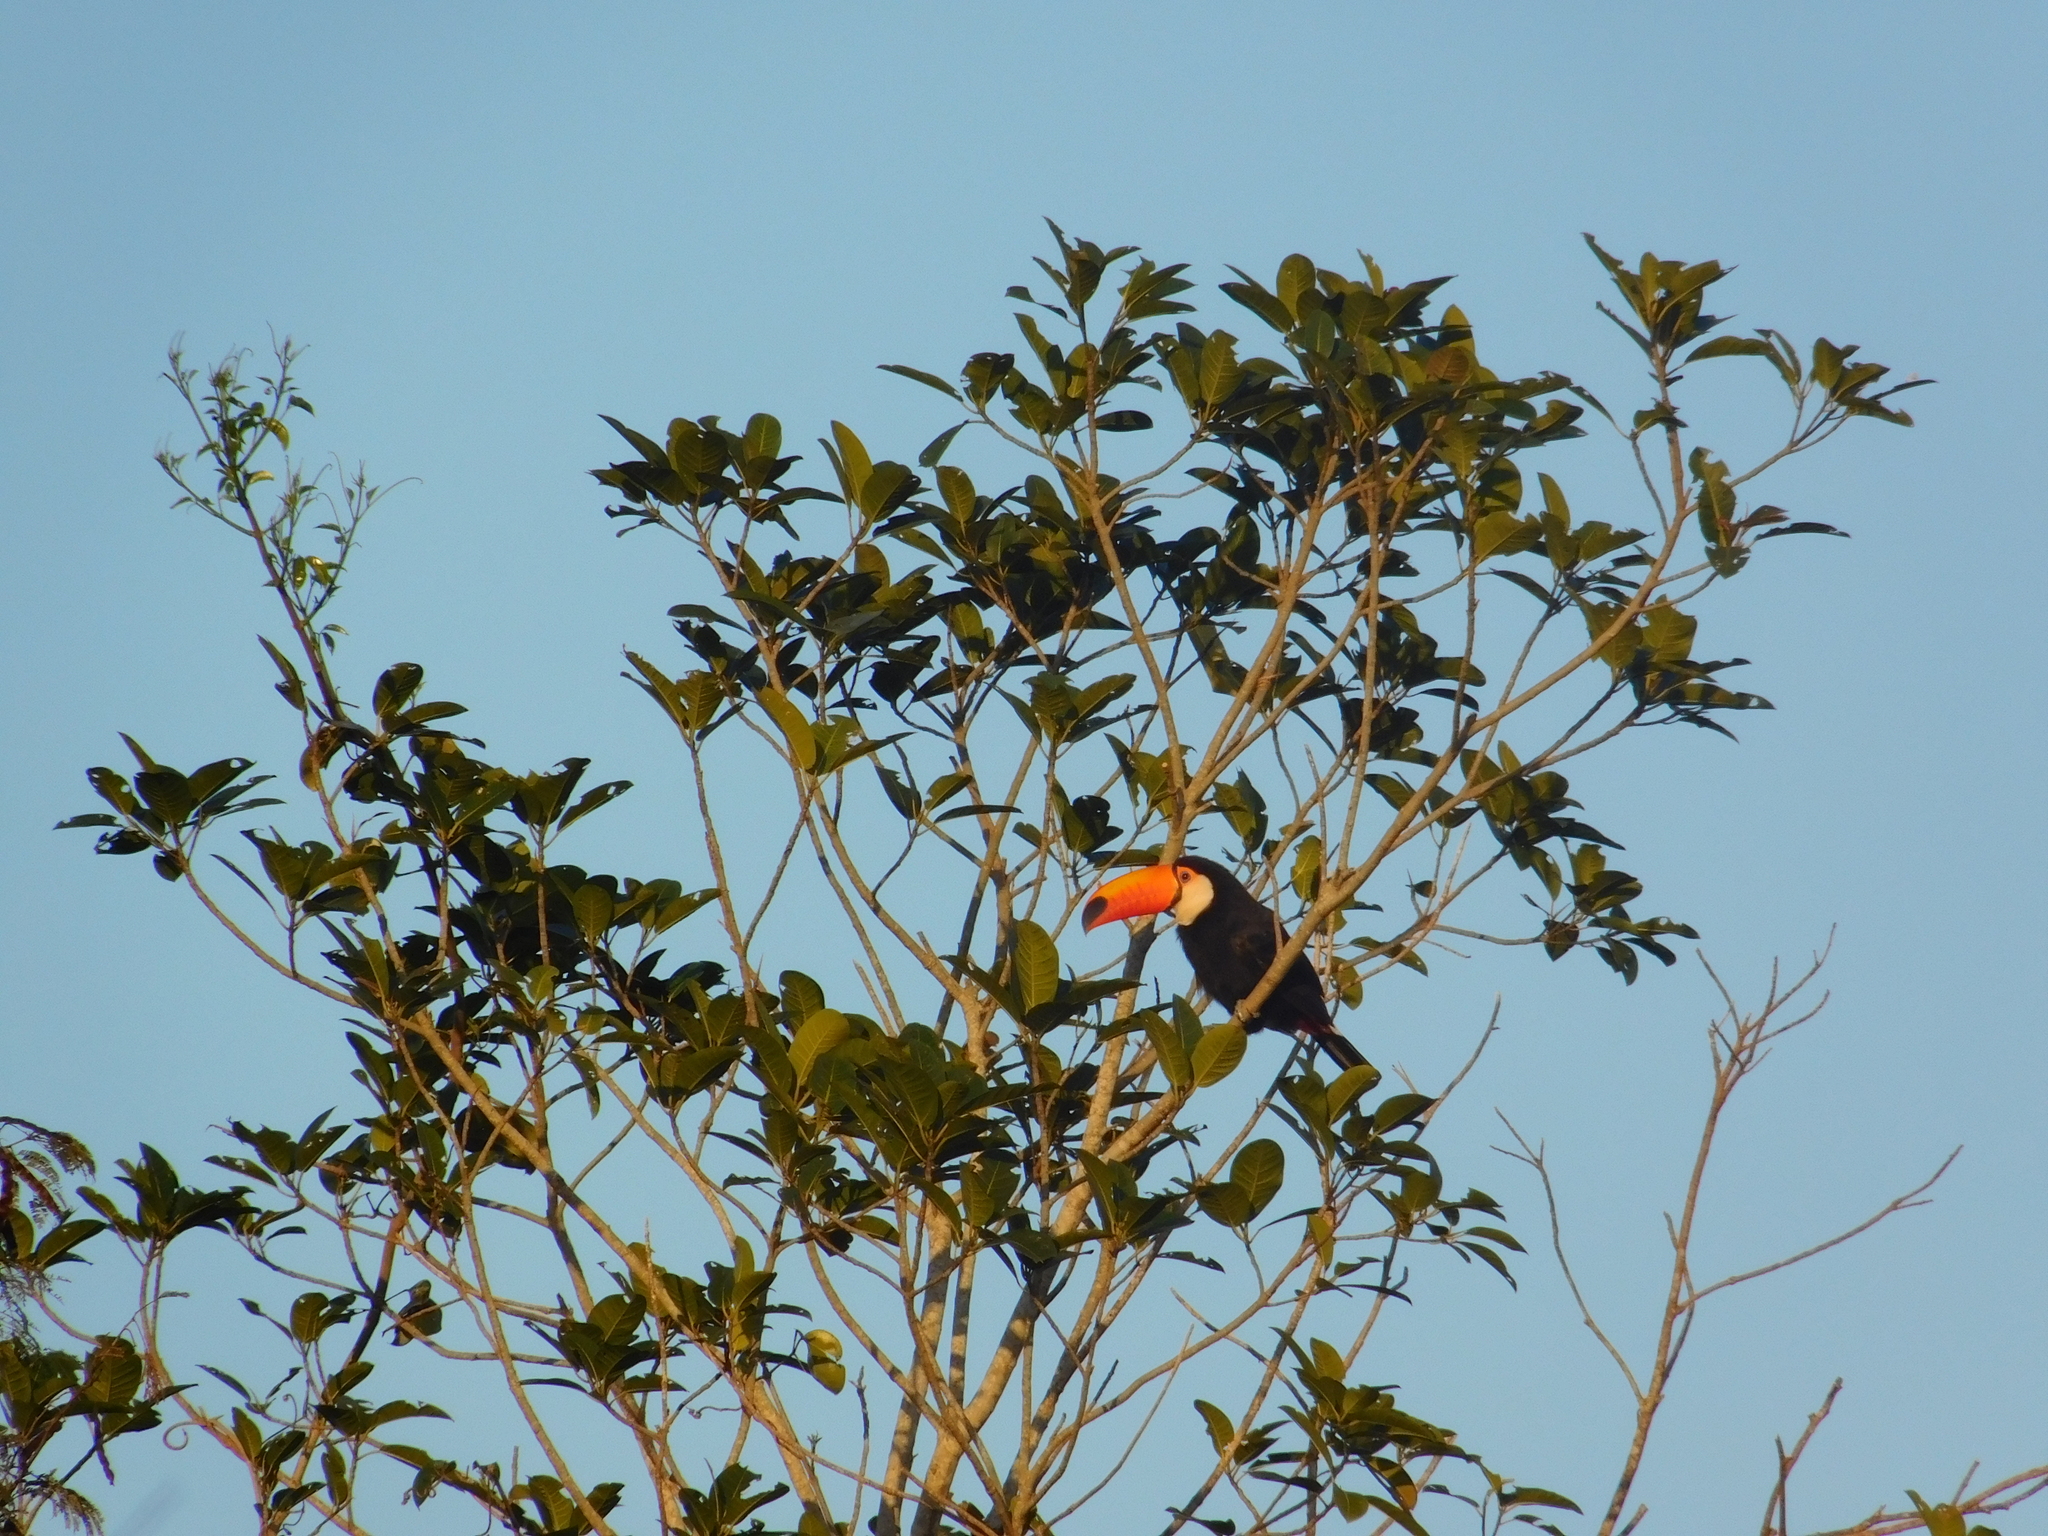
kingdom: Animalia
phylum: Chordata
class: Aves
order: Piciformes
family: Ramphastidae
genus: Ramphastos
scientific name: Ramphastos toco
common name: Toco toucan
